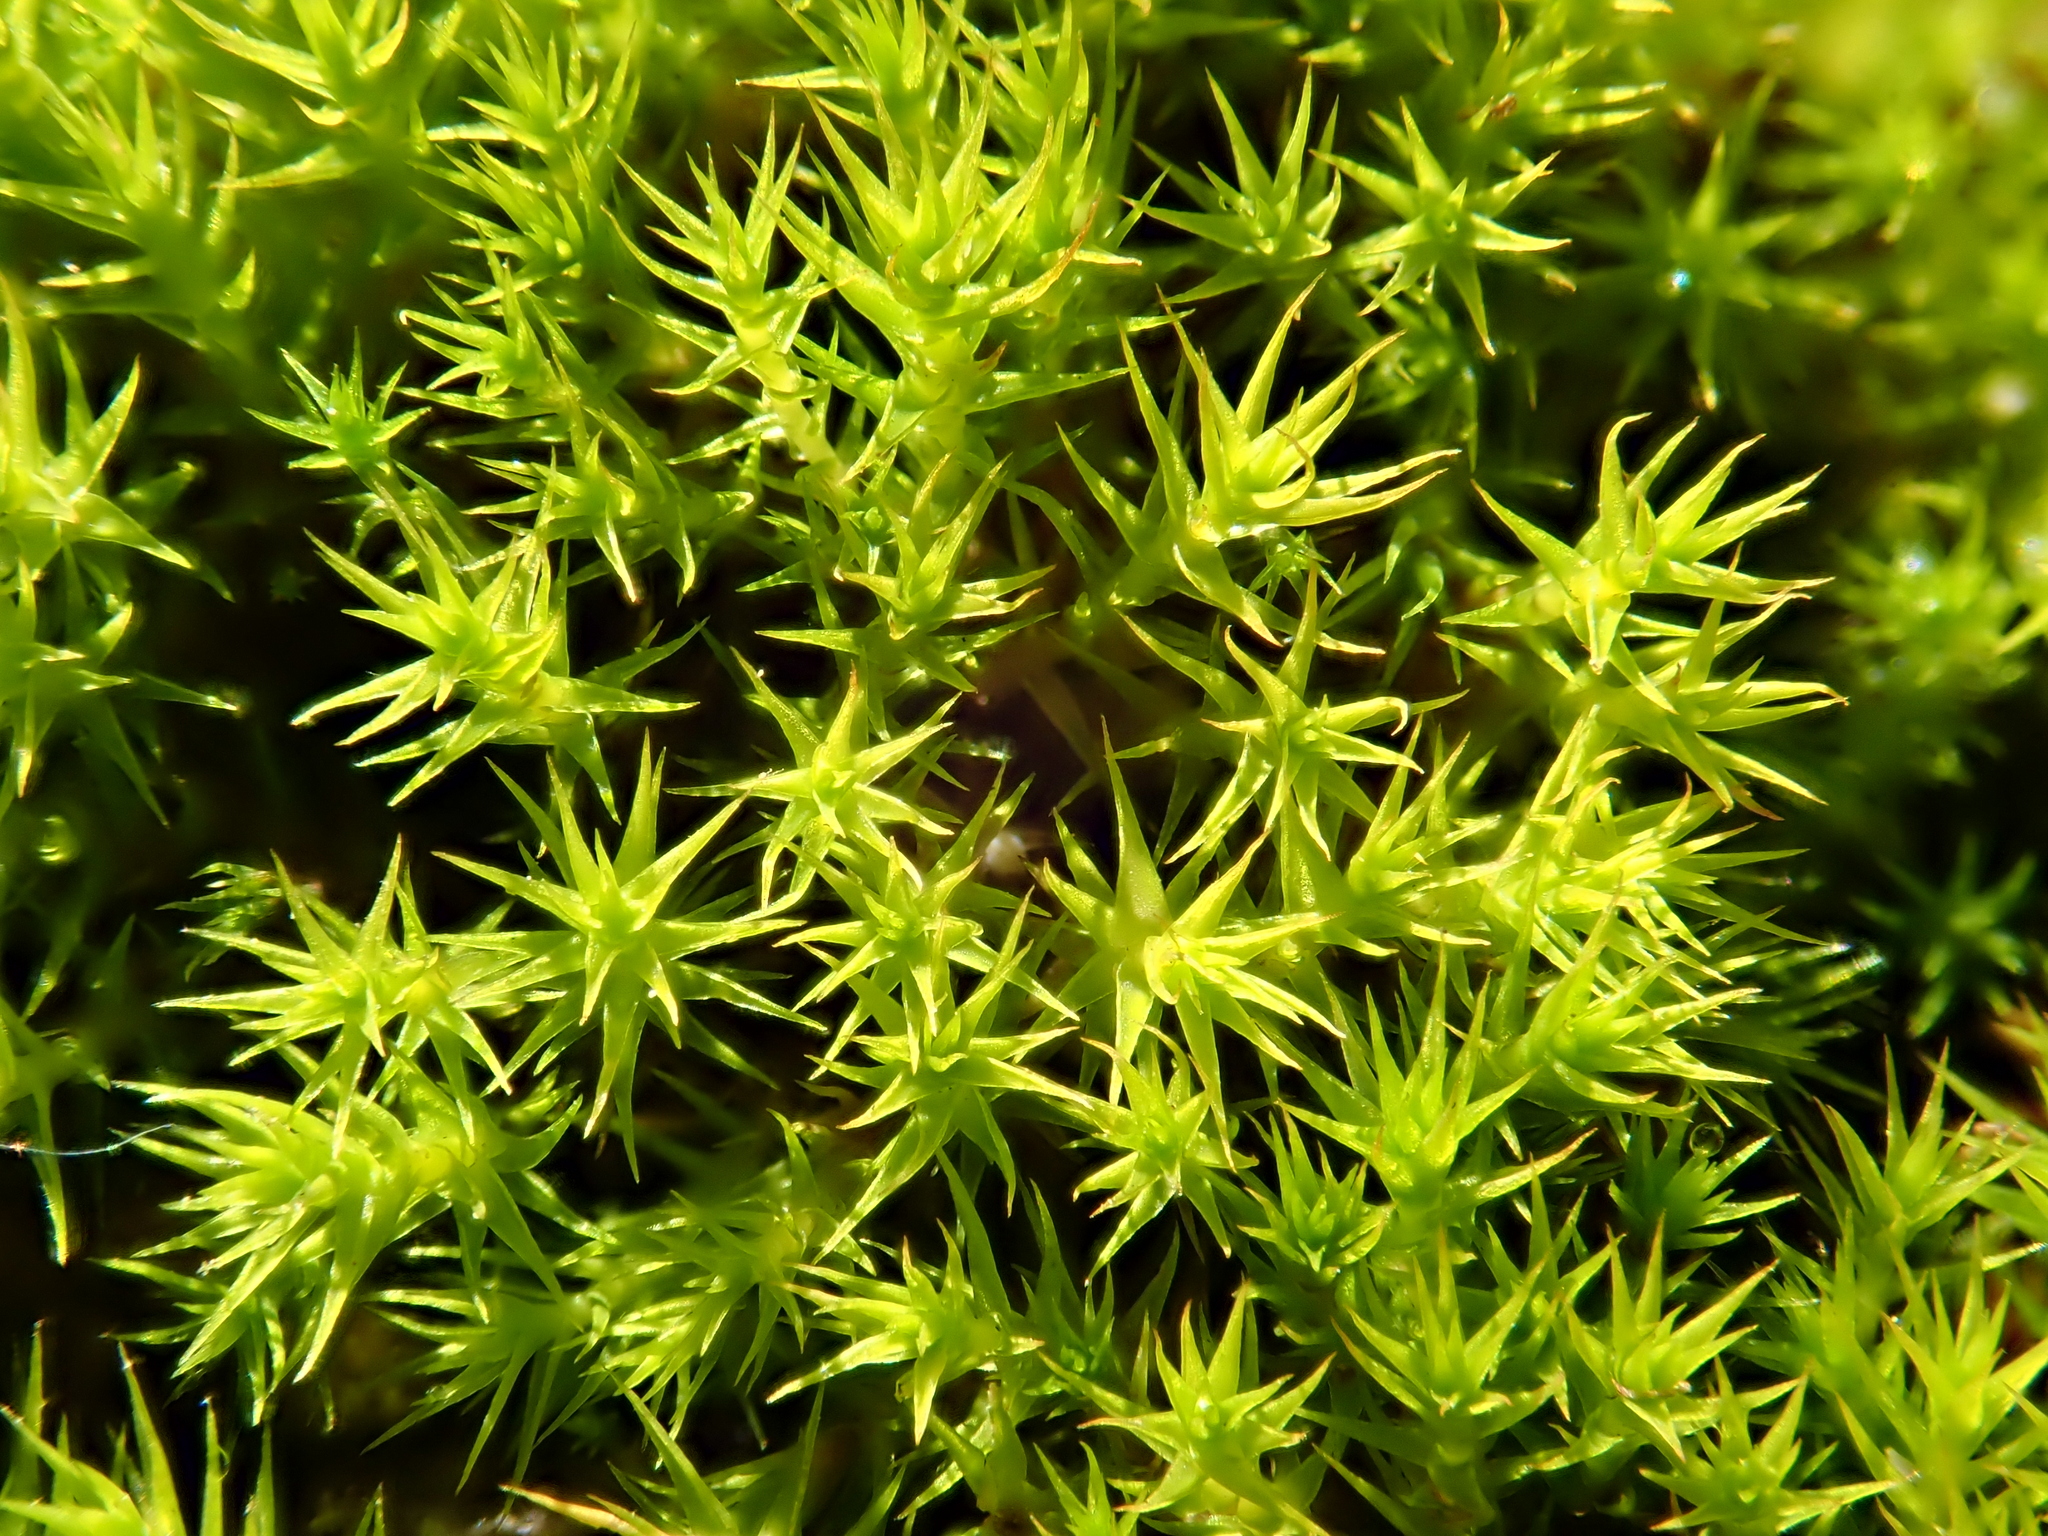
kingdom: Plantae
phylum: Bryophyta
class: Bryopsida
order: Dicranales
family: Ditrichaceae
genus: Cheilothela
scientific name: Cheilothela chloropus
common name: Rabbit moss
